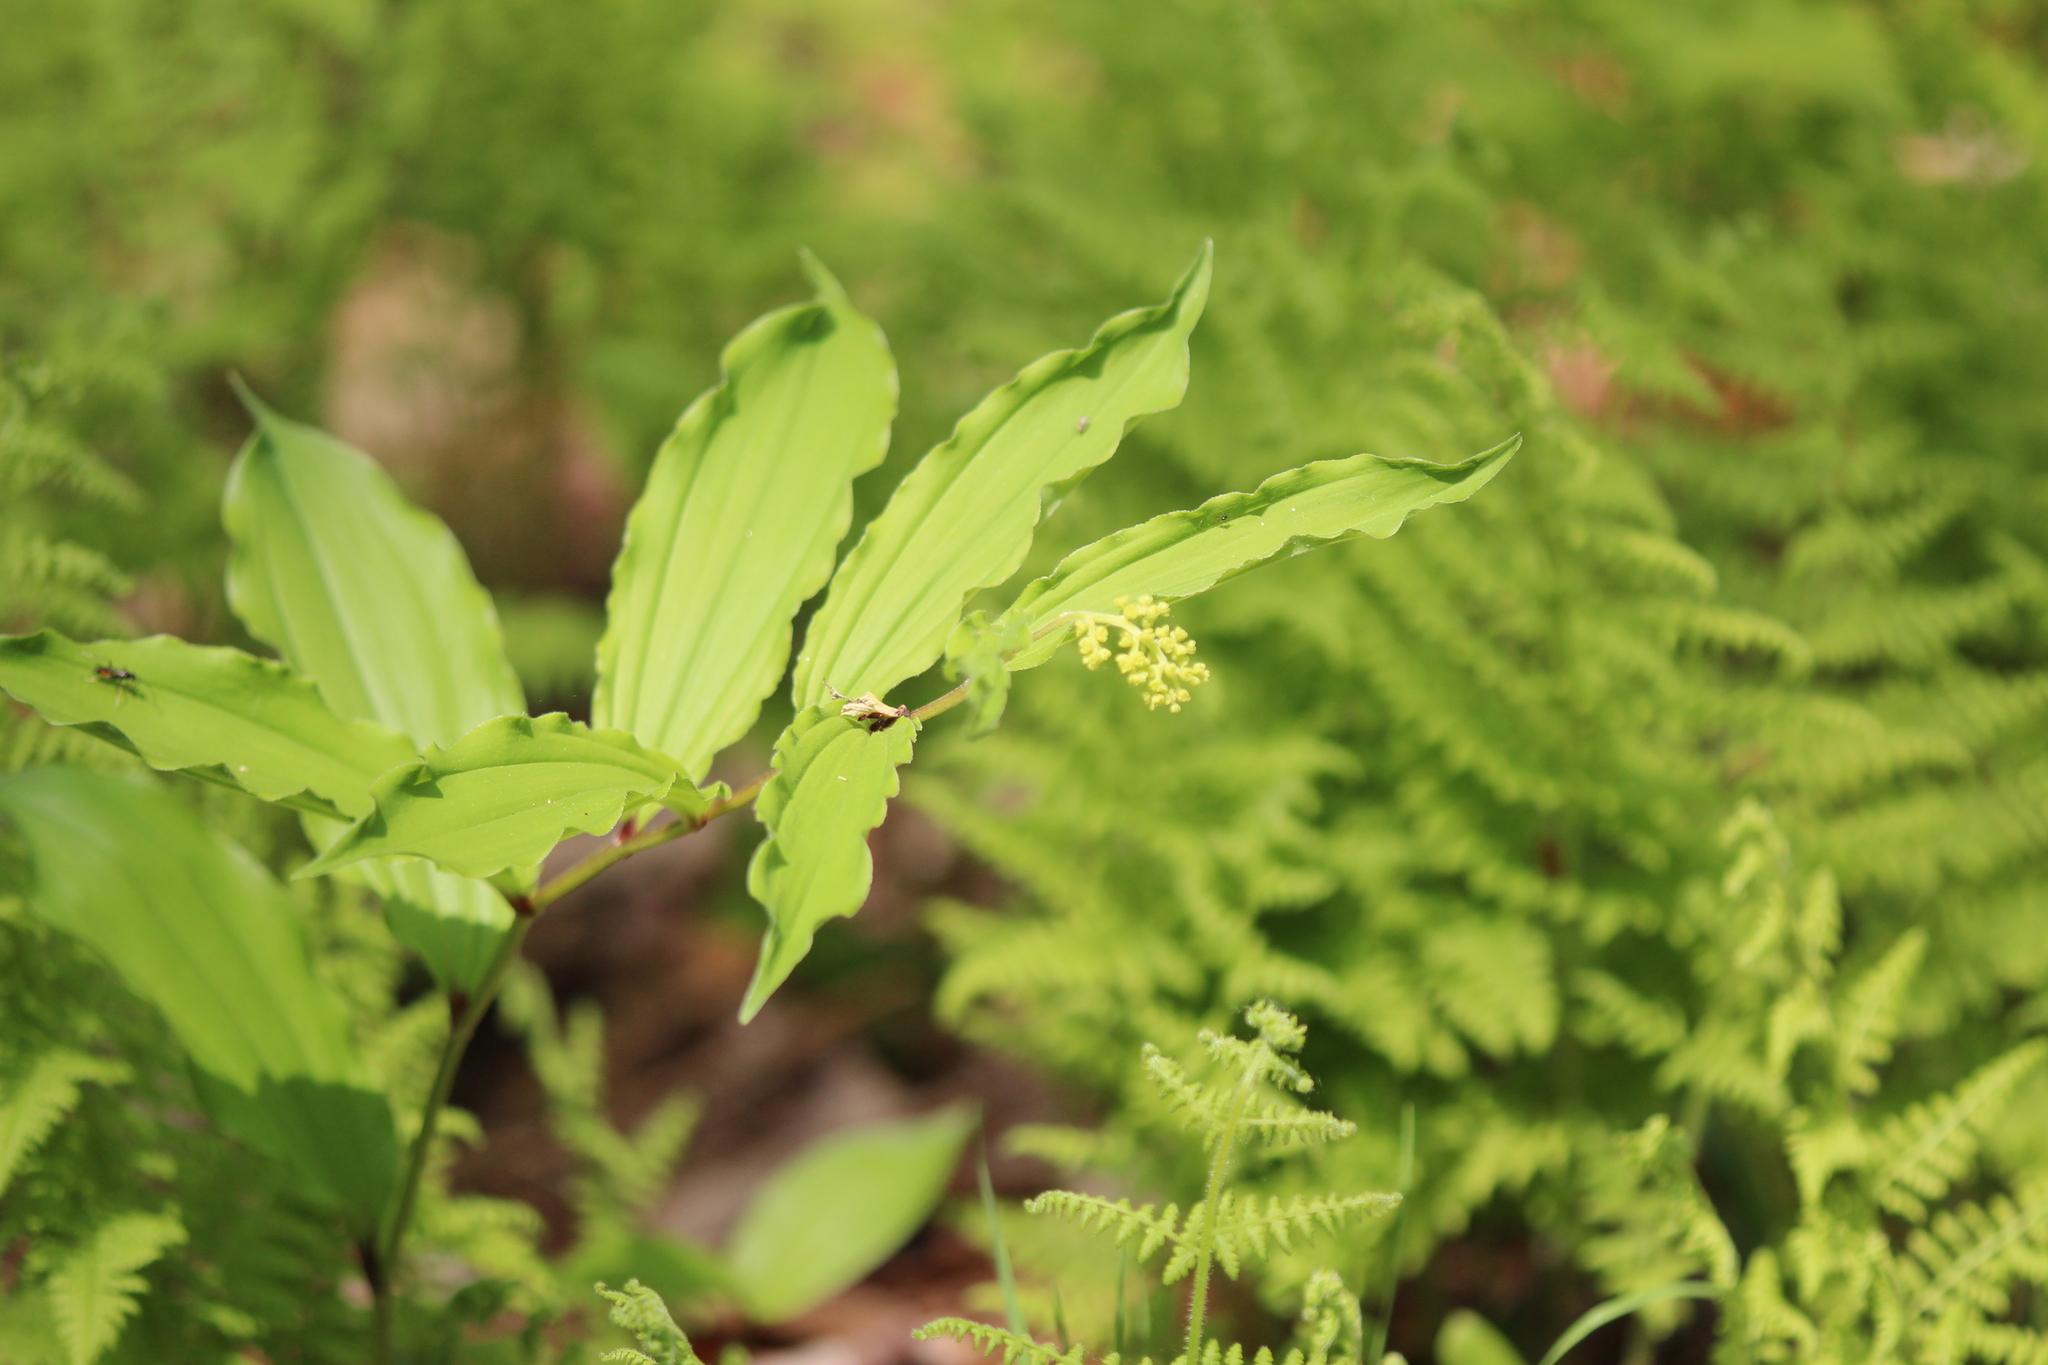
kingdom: Plantae
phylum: Tracheophyta
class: Liliopsida
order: Asparagales
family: Asparagaceae
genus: Maianthemum
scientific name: Maianthemum racemosum
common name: False spikenard
